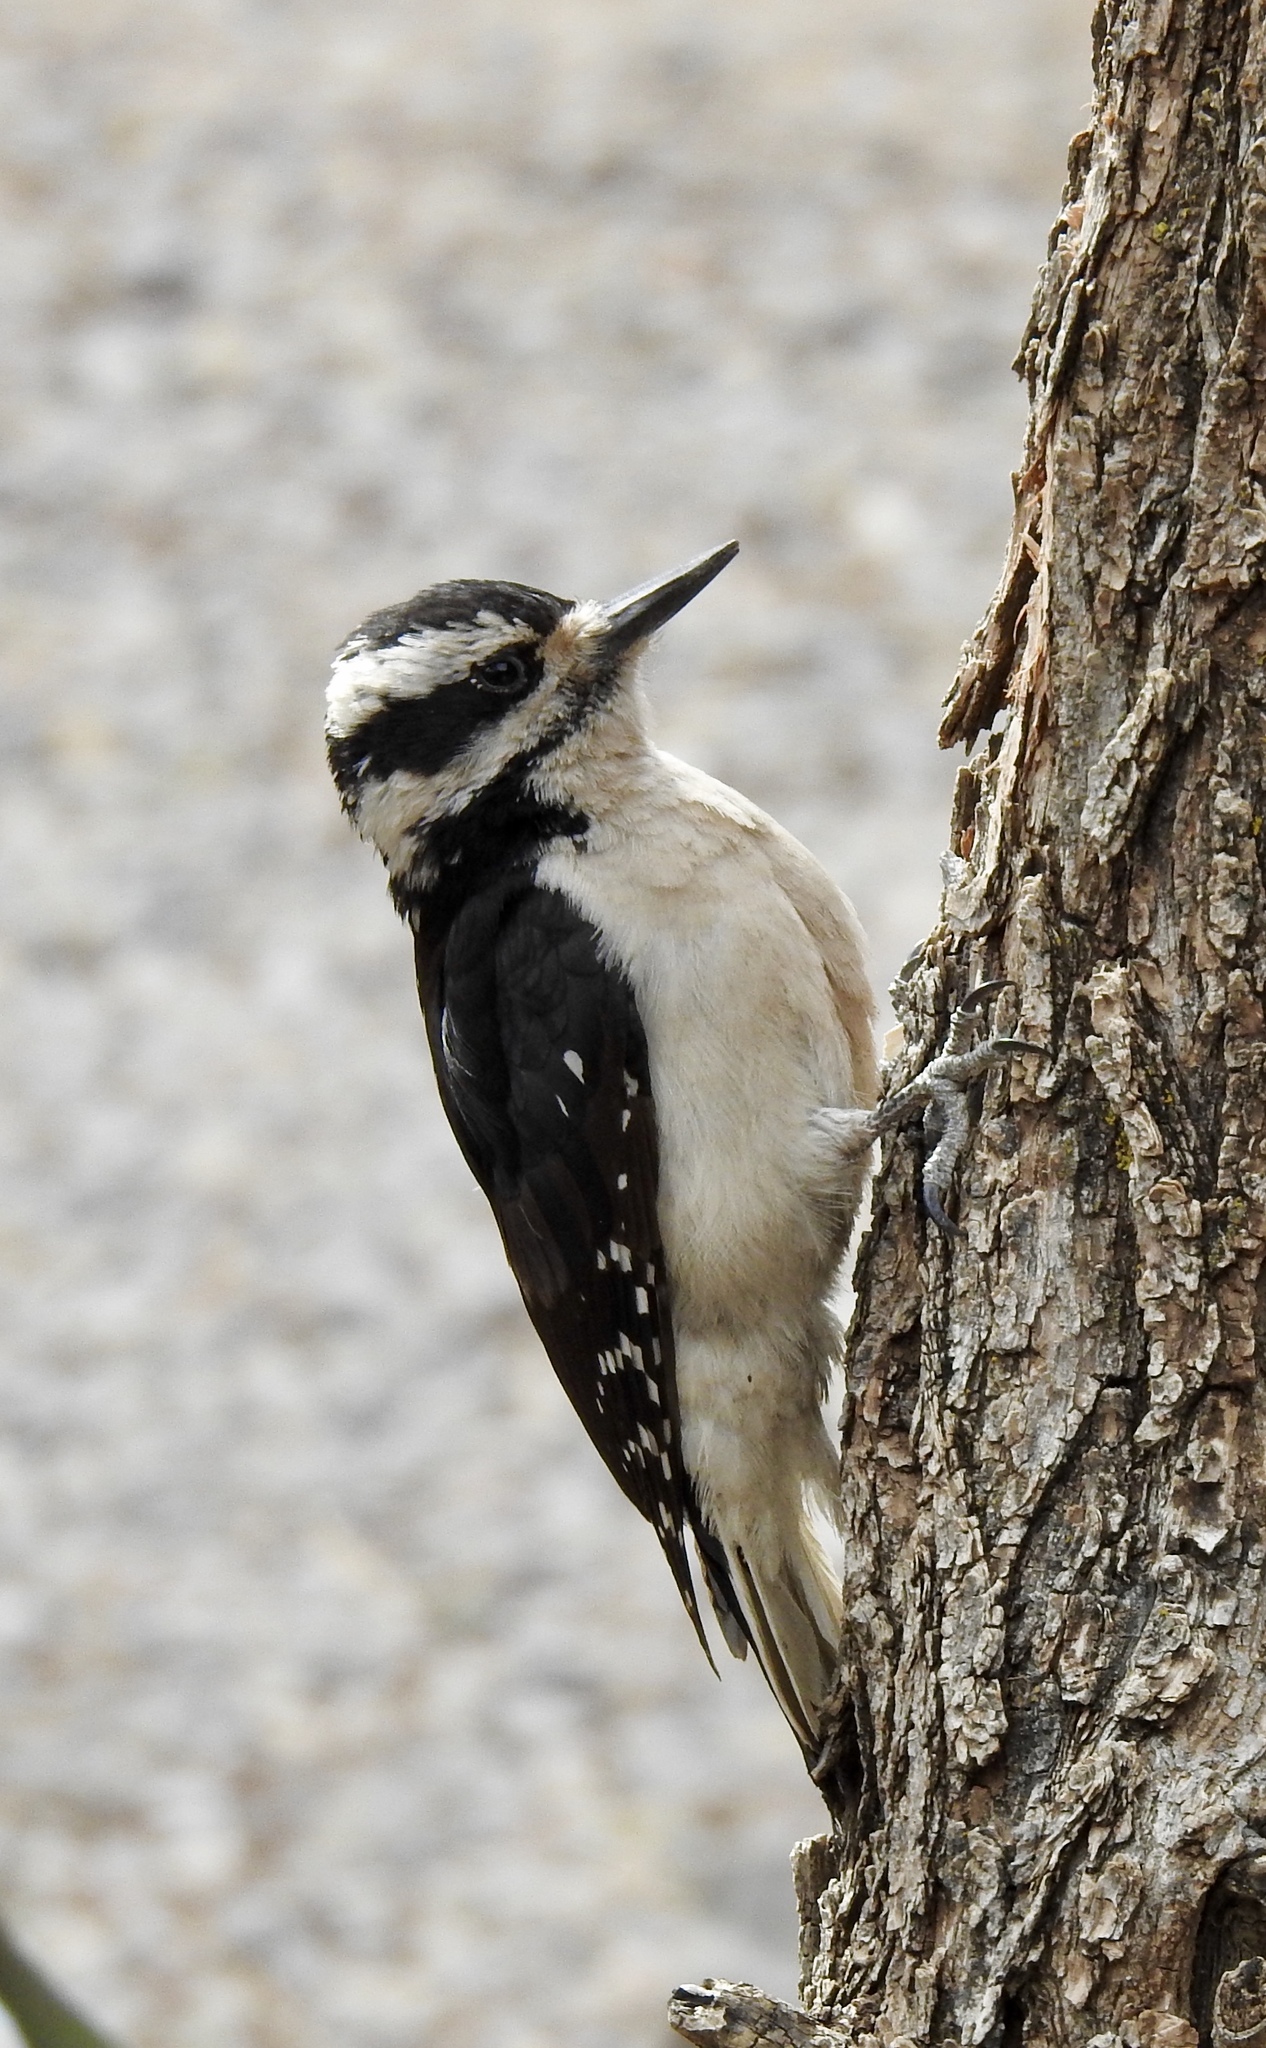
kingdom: Animalia
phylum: Chordata
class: Aves
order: Piciformes
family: Picidae
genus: Leuconotopicus
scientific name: Leuconotopicus villosus
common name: Hairy woodpecker
